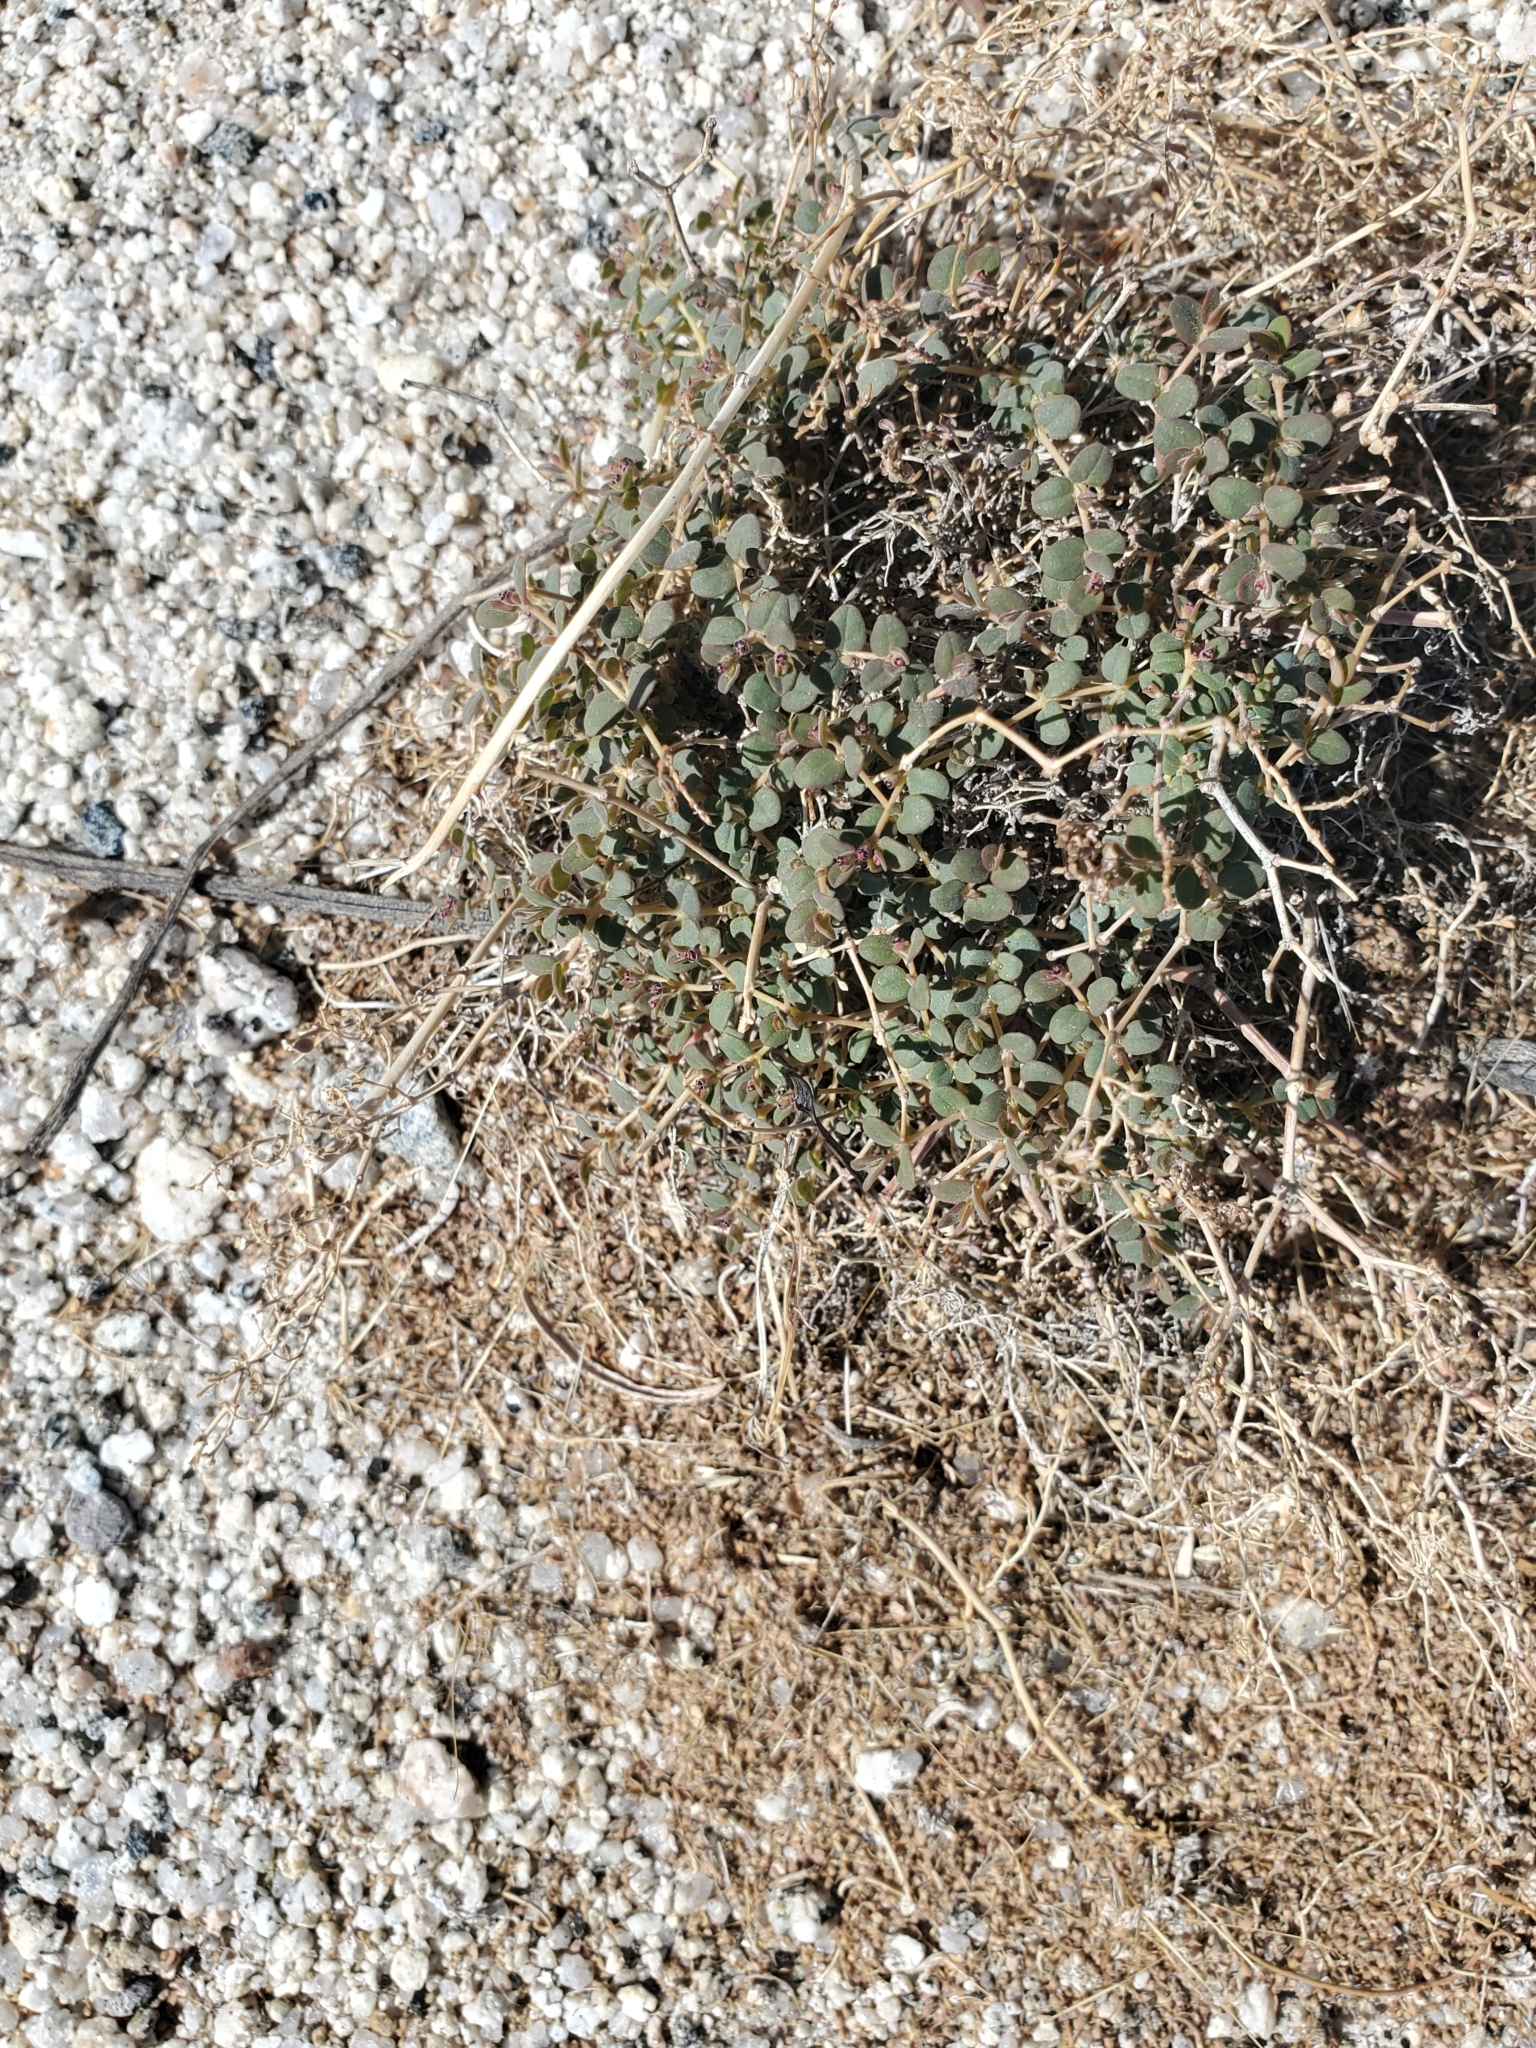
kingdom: Plantae
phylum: Tracheophyta
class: Magnoliopsida
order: Malpighiales
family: Euphorbiaceae
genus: Euphorbia
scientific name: Euphorbia polycarpa
